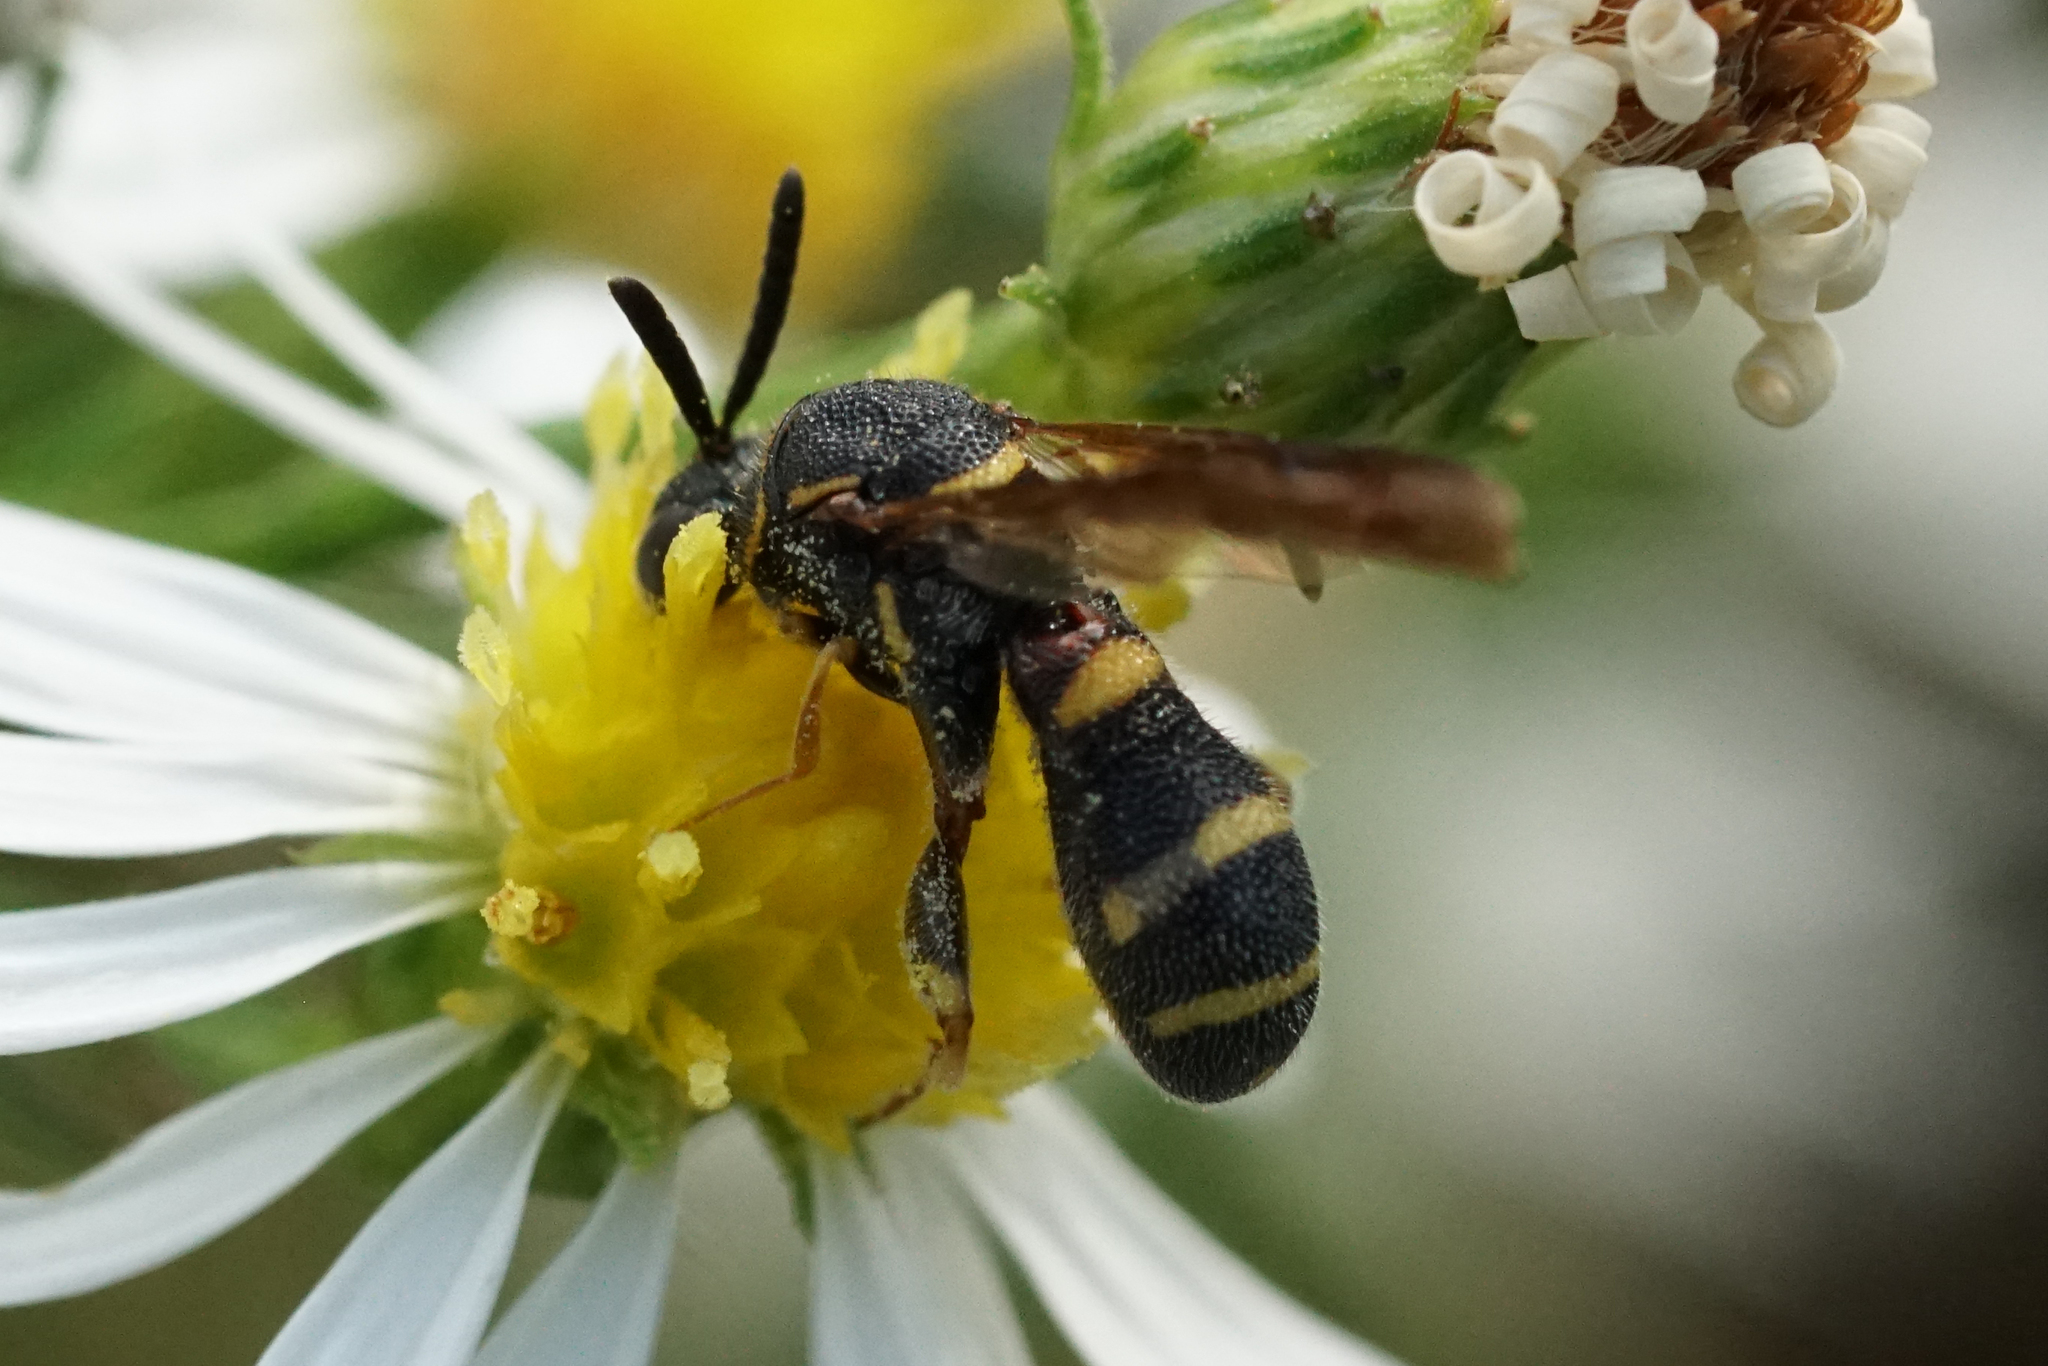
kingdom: Animalia
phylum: Arthropoda
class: Insecta
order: Hymenoptera
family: Leucospidae
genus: Leucospis
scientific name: Leucospis affinis
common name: Wasp
